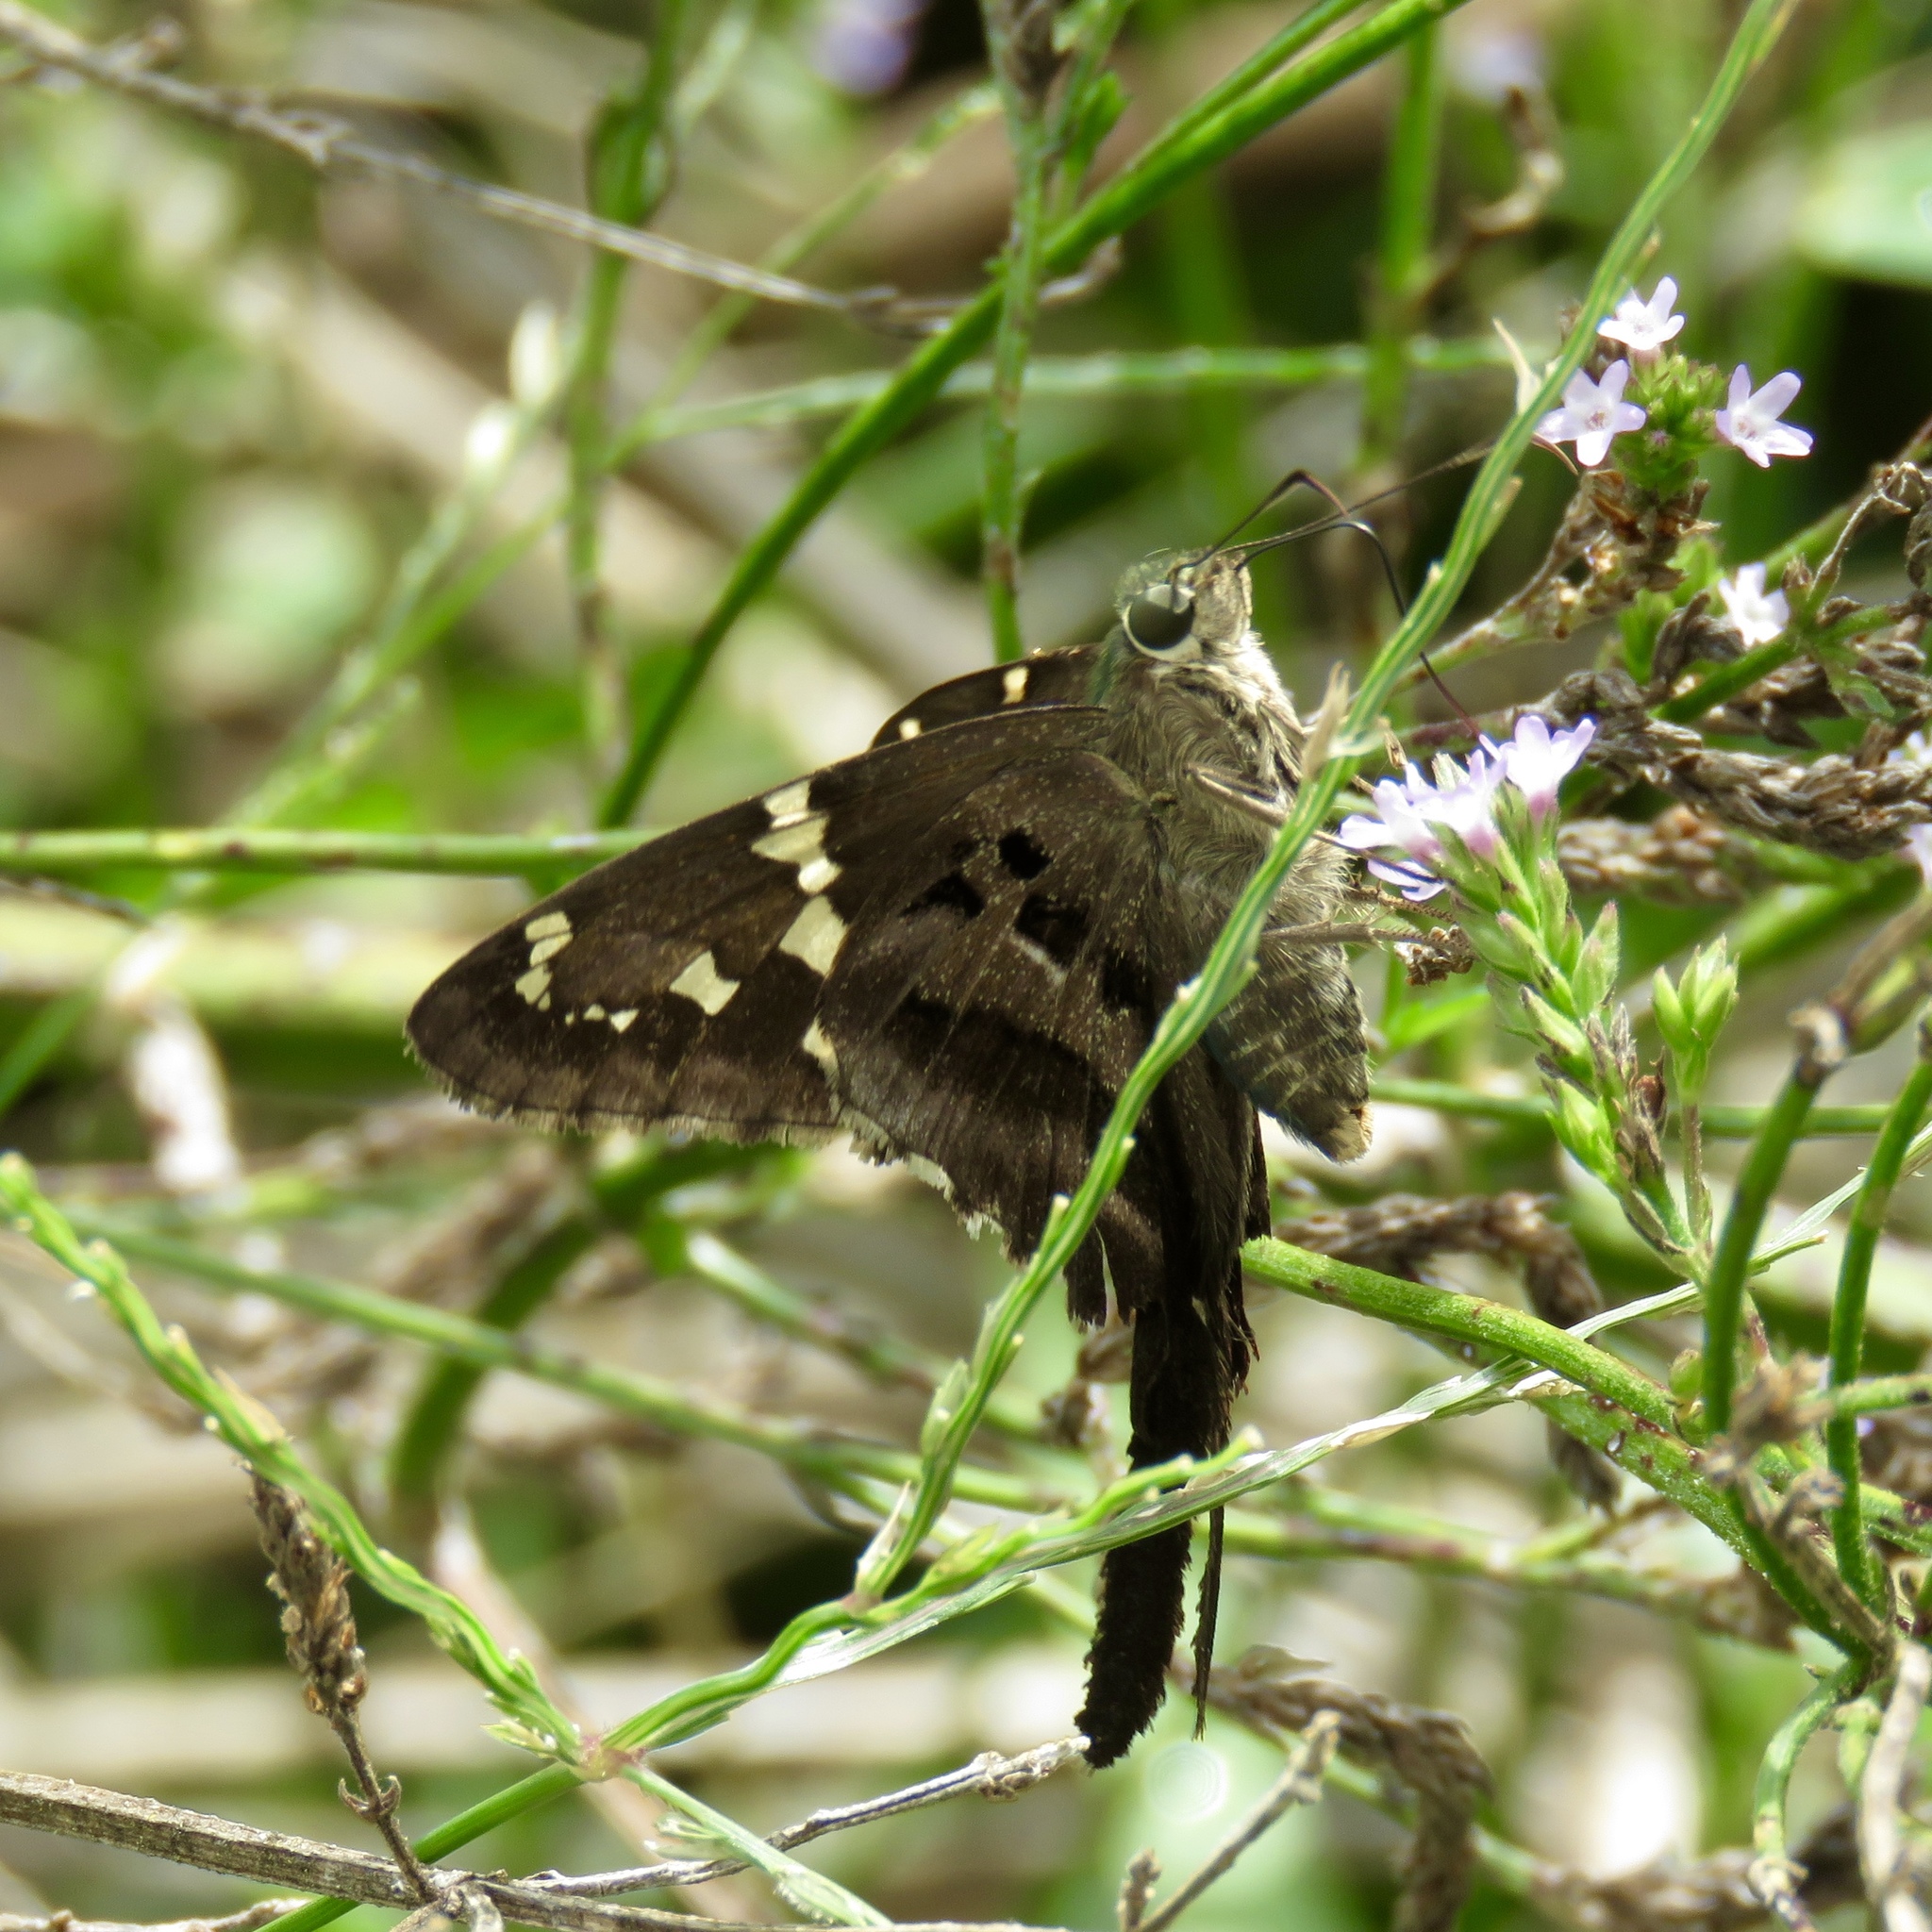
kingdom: Animalia
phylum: Arthropoda
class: Insecta
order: Lepidoptera
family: Hesperiidae
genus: Urbanus
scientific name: Urbanus proteus
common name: Long-tailed skipper
